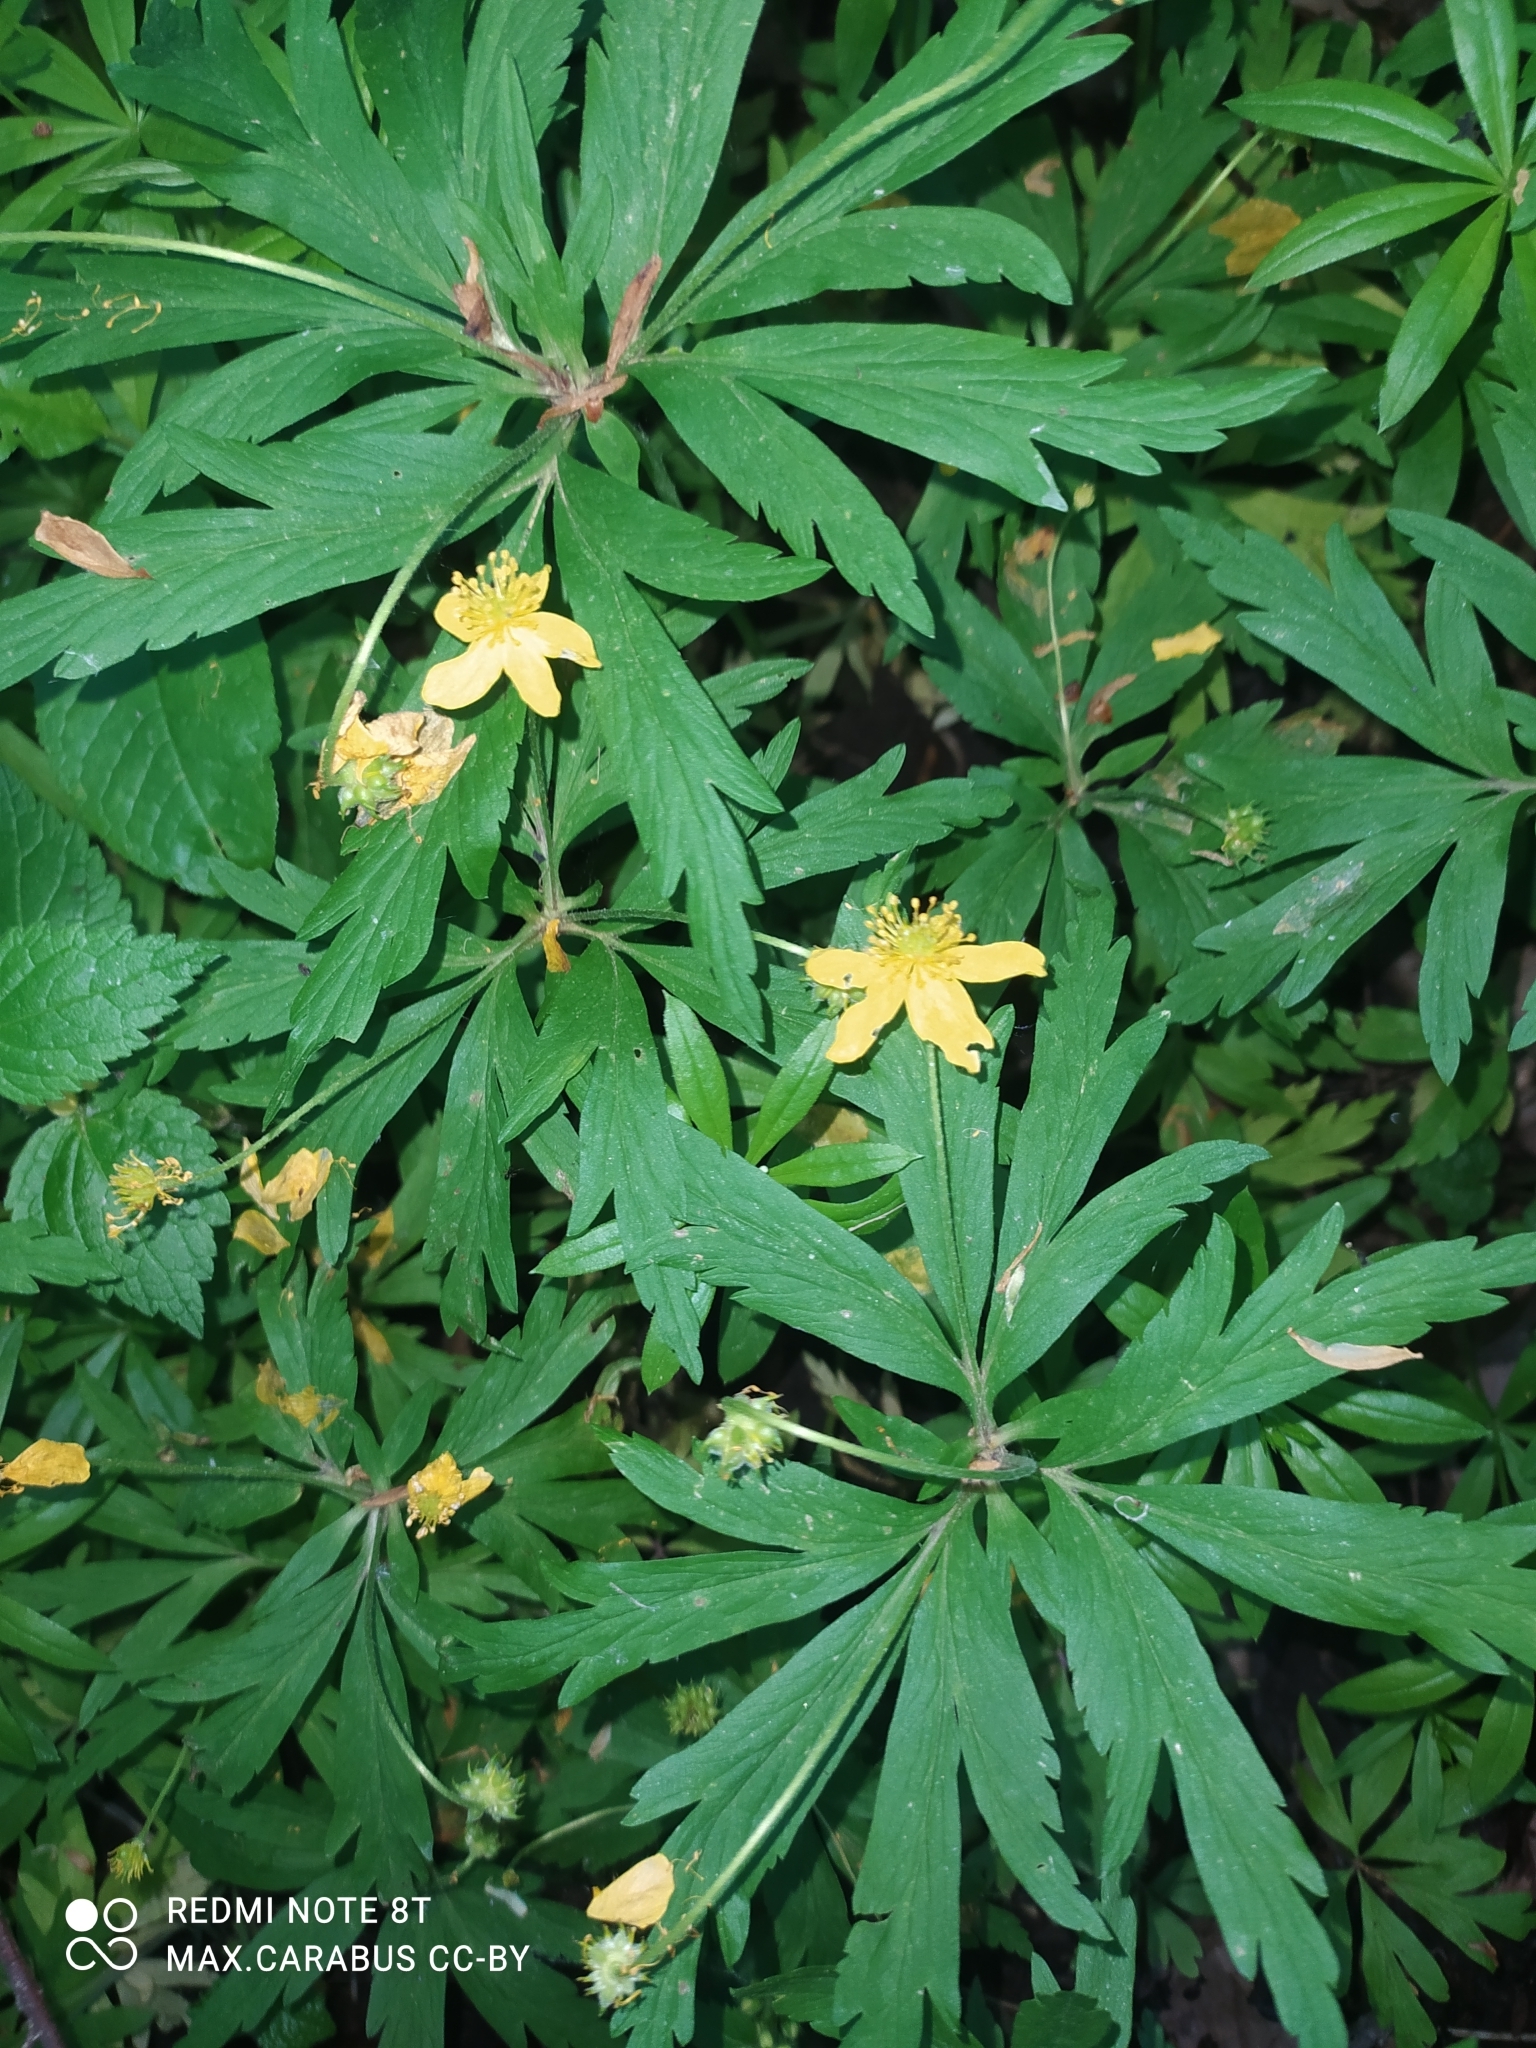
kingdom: Plantae
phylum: Tracheophyta
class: Magnoliopsida
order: Ranunculales
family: Ranunculaceae
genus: Anemone
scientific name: Anemone ranunculoides
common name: Yellow anemone
